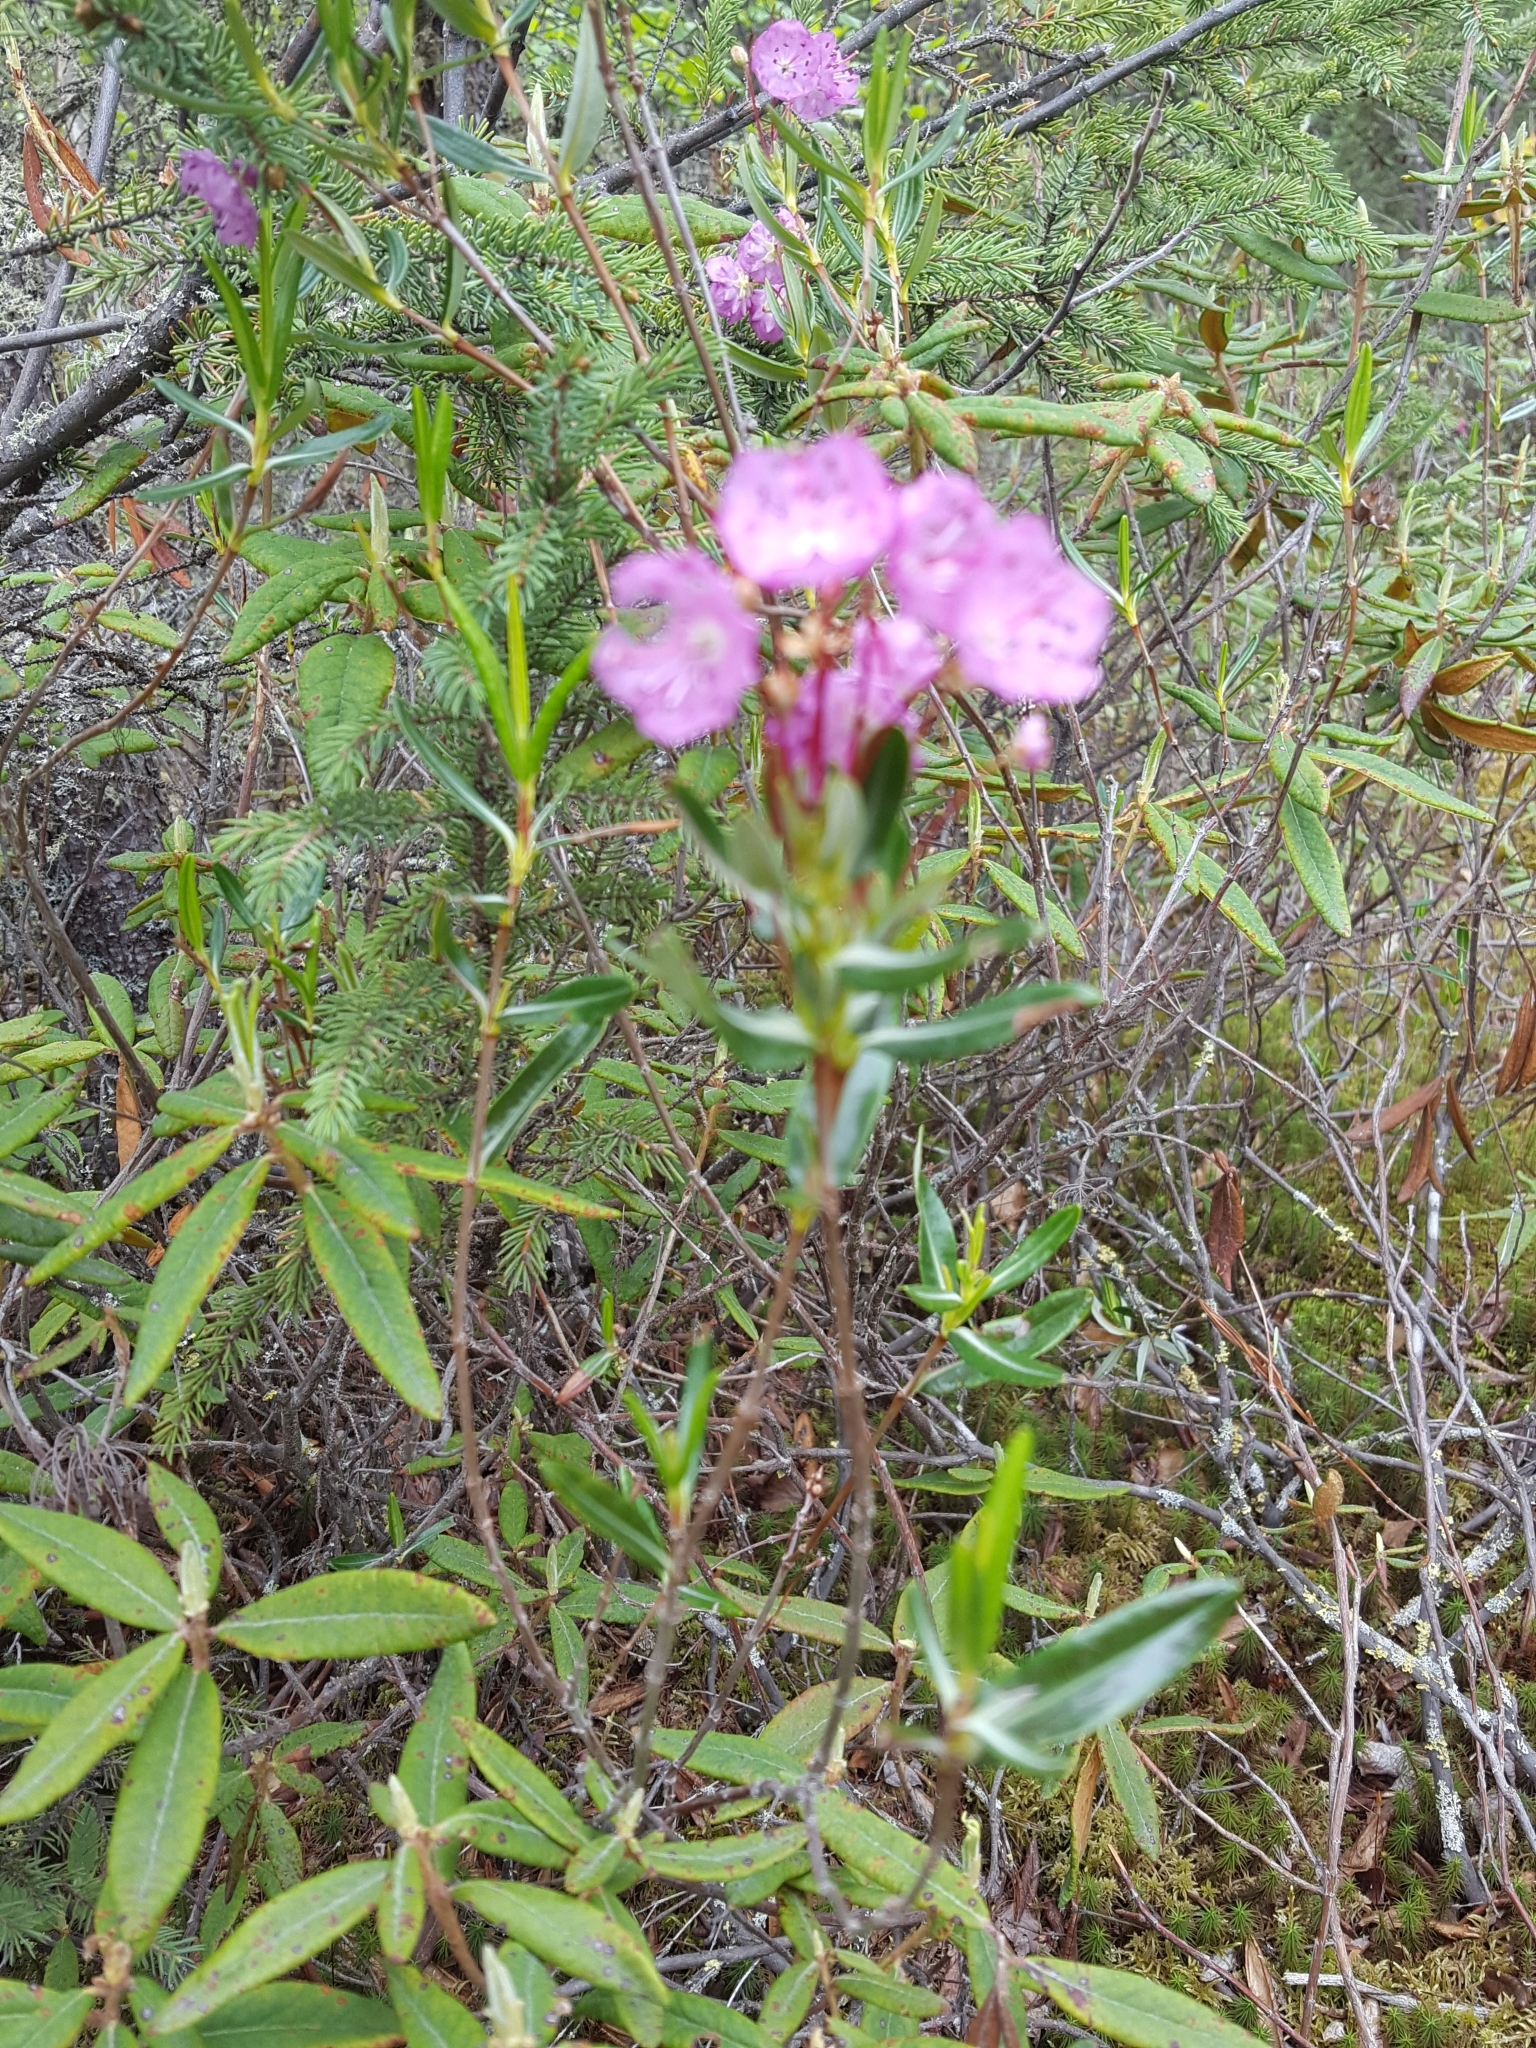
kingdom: Plantae
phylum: Tracheophyta
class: Magnoliopsida
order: Ericales
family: Ericaceae
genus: Kalmia
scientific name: Kalmia polifolia
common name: Bog-laurel
